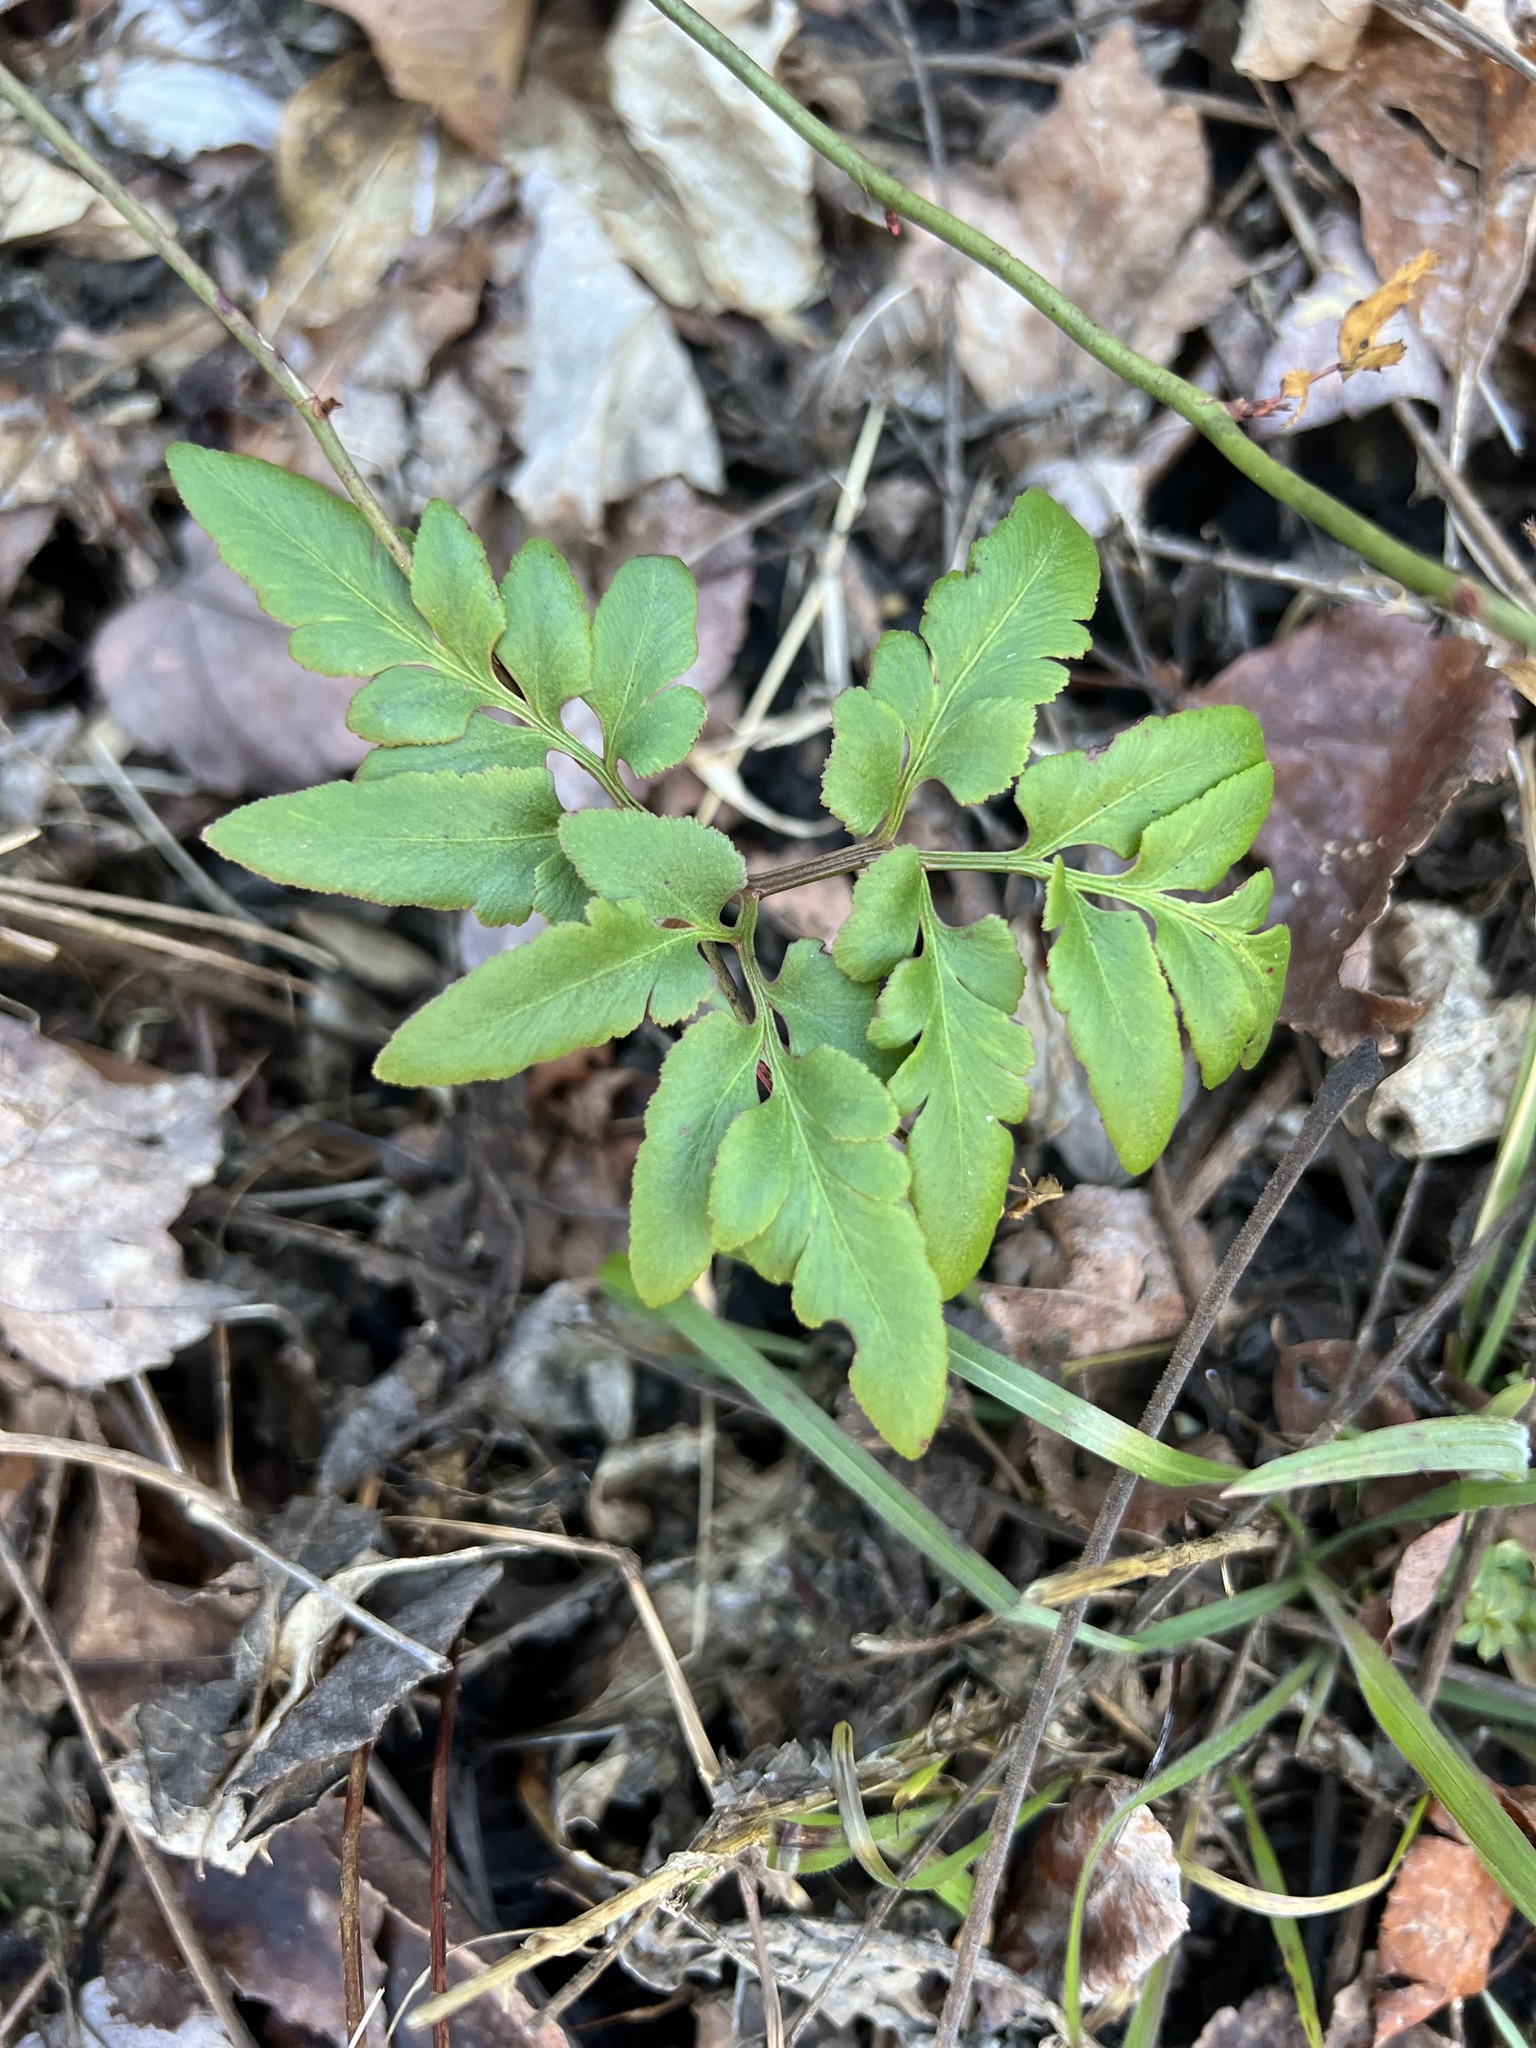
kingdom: Plantae
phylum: Tracheophyta
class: Polypodiopsida
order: Ophioglossales
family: Ophioglossaceae
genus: Sceptridium
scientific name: Sceptridium biternatum
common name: Sparse-lobed grapefern
